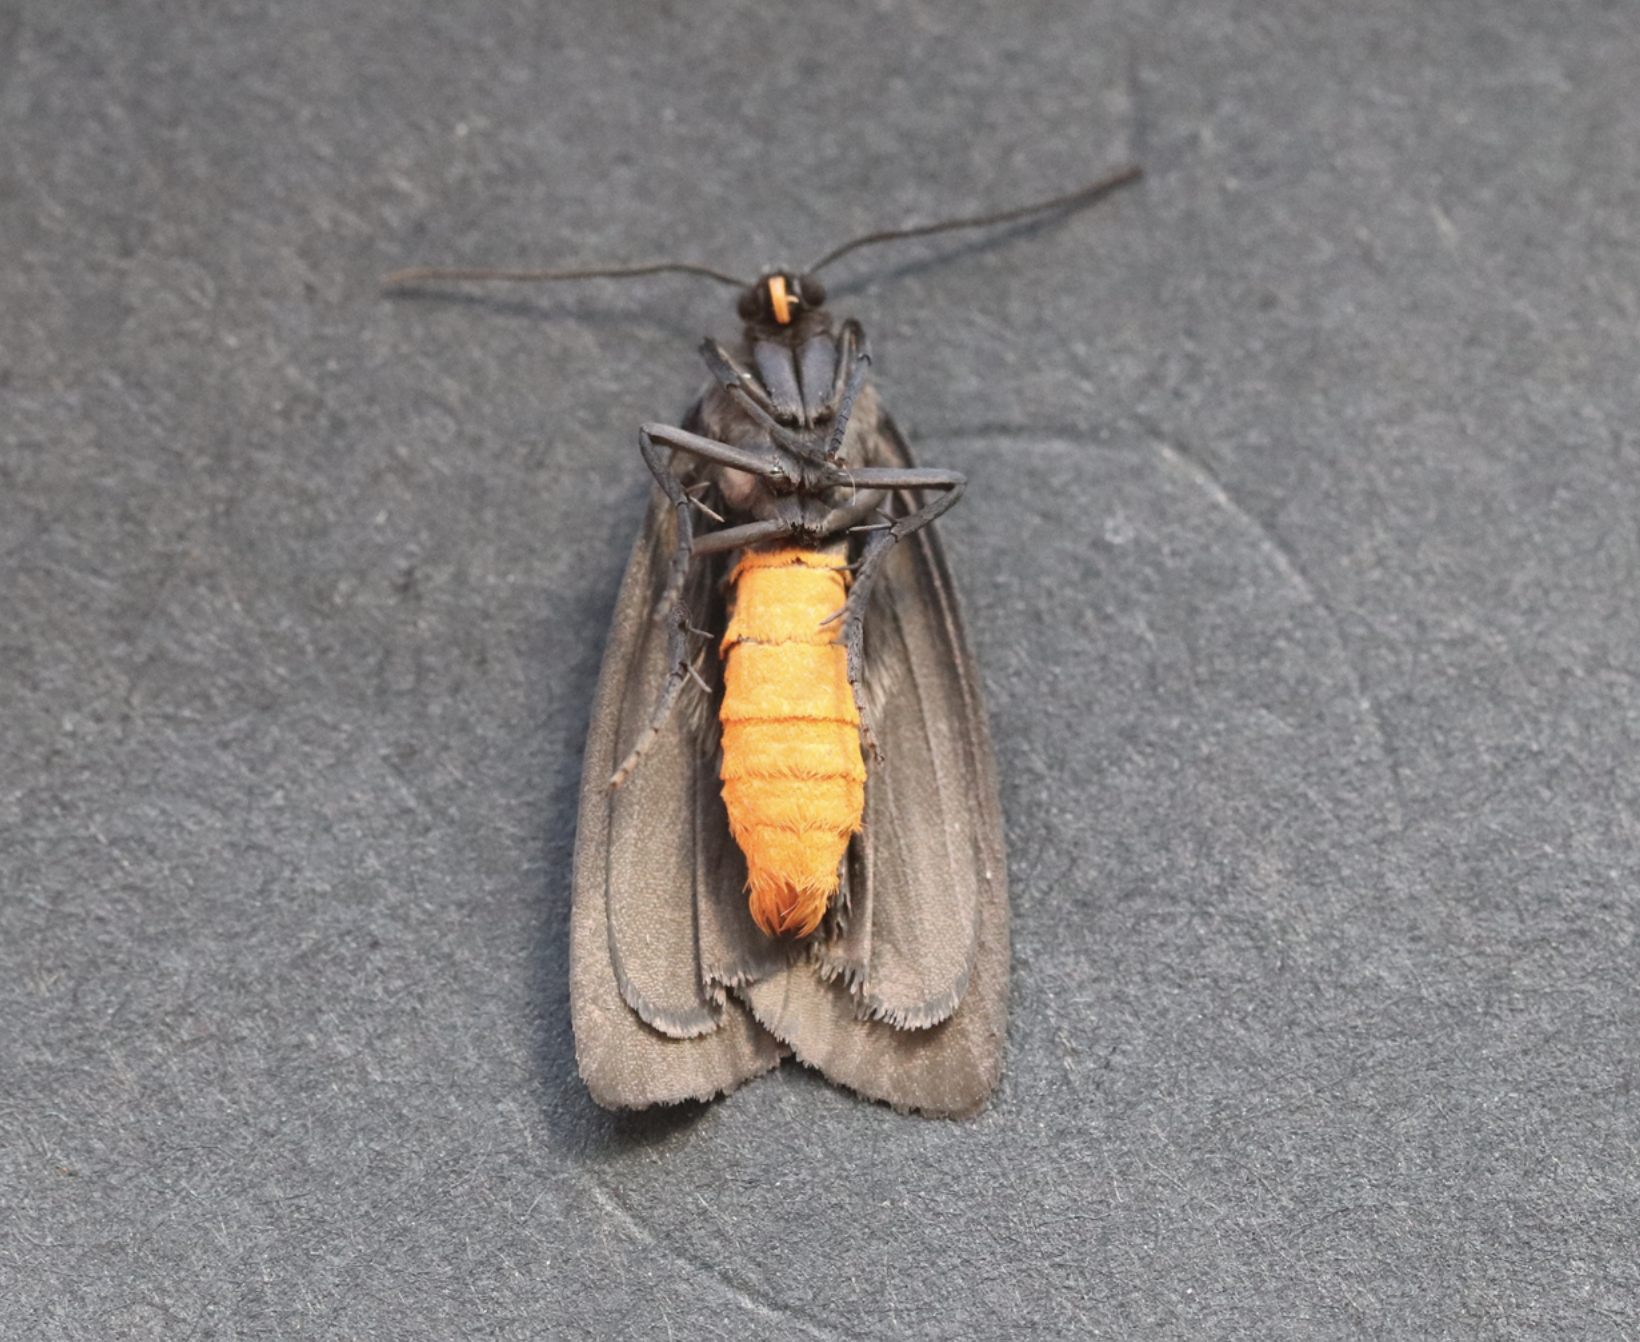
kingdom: Animalia
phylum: Arthropoda
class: Insecta
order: Lepidoptera
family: Erebidae
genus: Atolmis
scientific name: Atolmis rubricollis
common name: Red-necked footman
